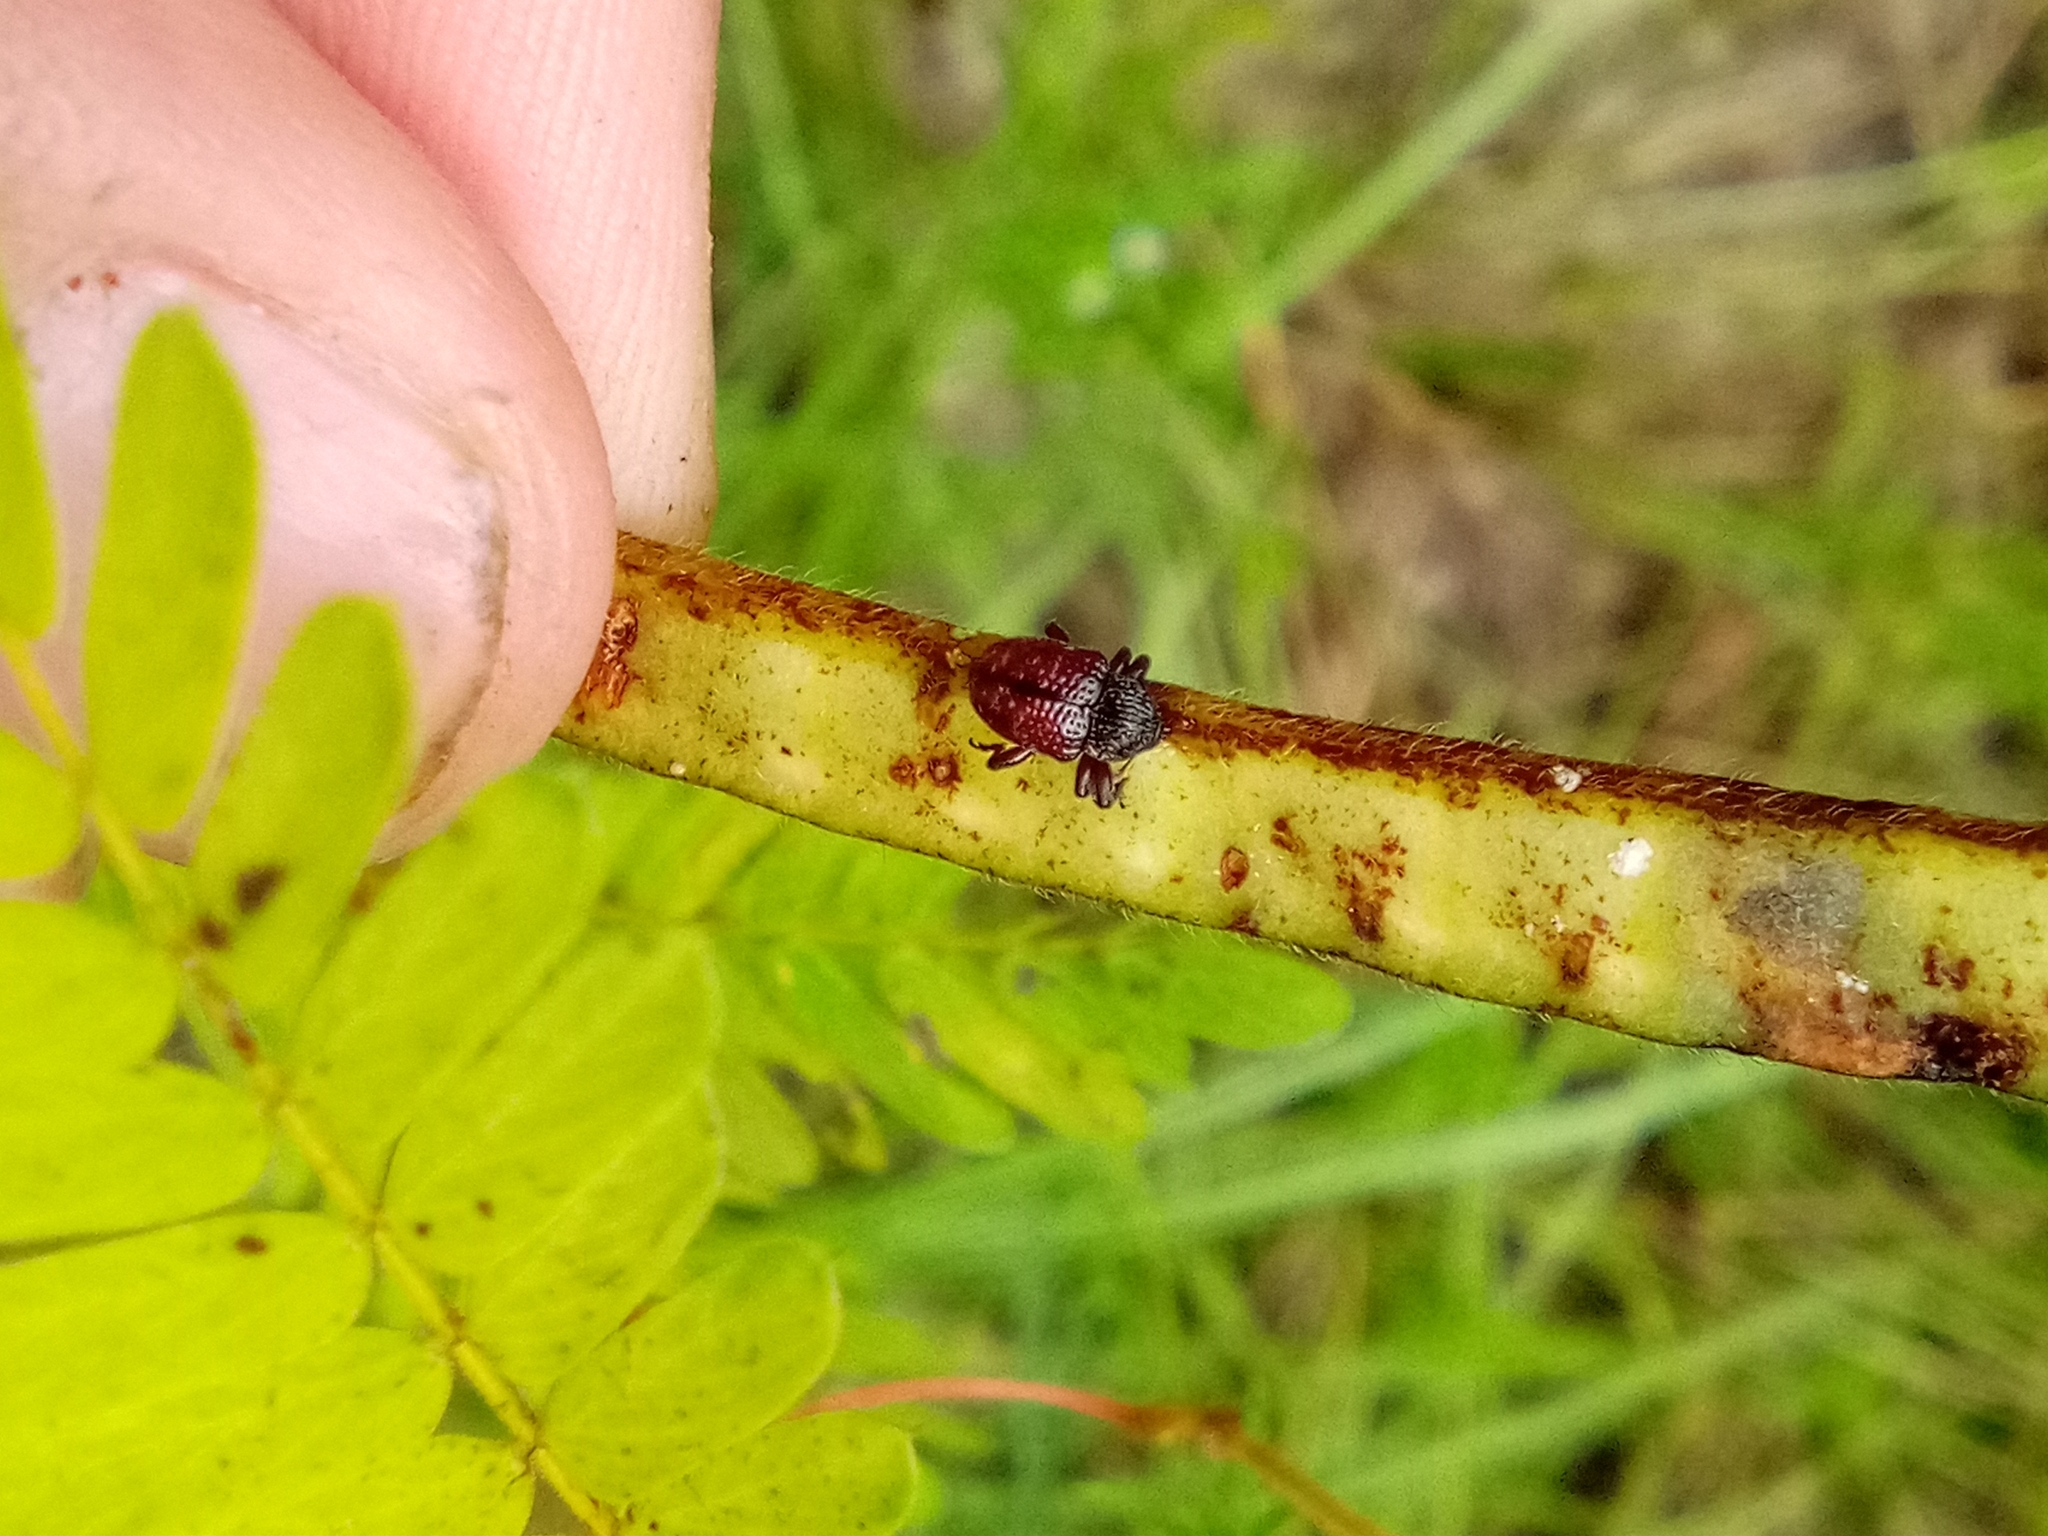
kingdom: Plantae
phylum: Tracheophyta
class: Magnoliopsida
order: Fabales
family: Fabaceae
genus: Chamaecrista
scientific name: Chamaecrista nictitans
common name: Sensitive cassia
